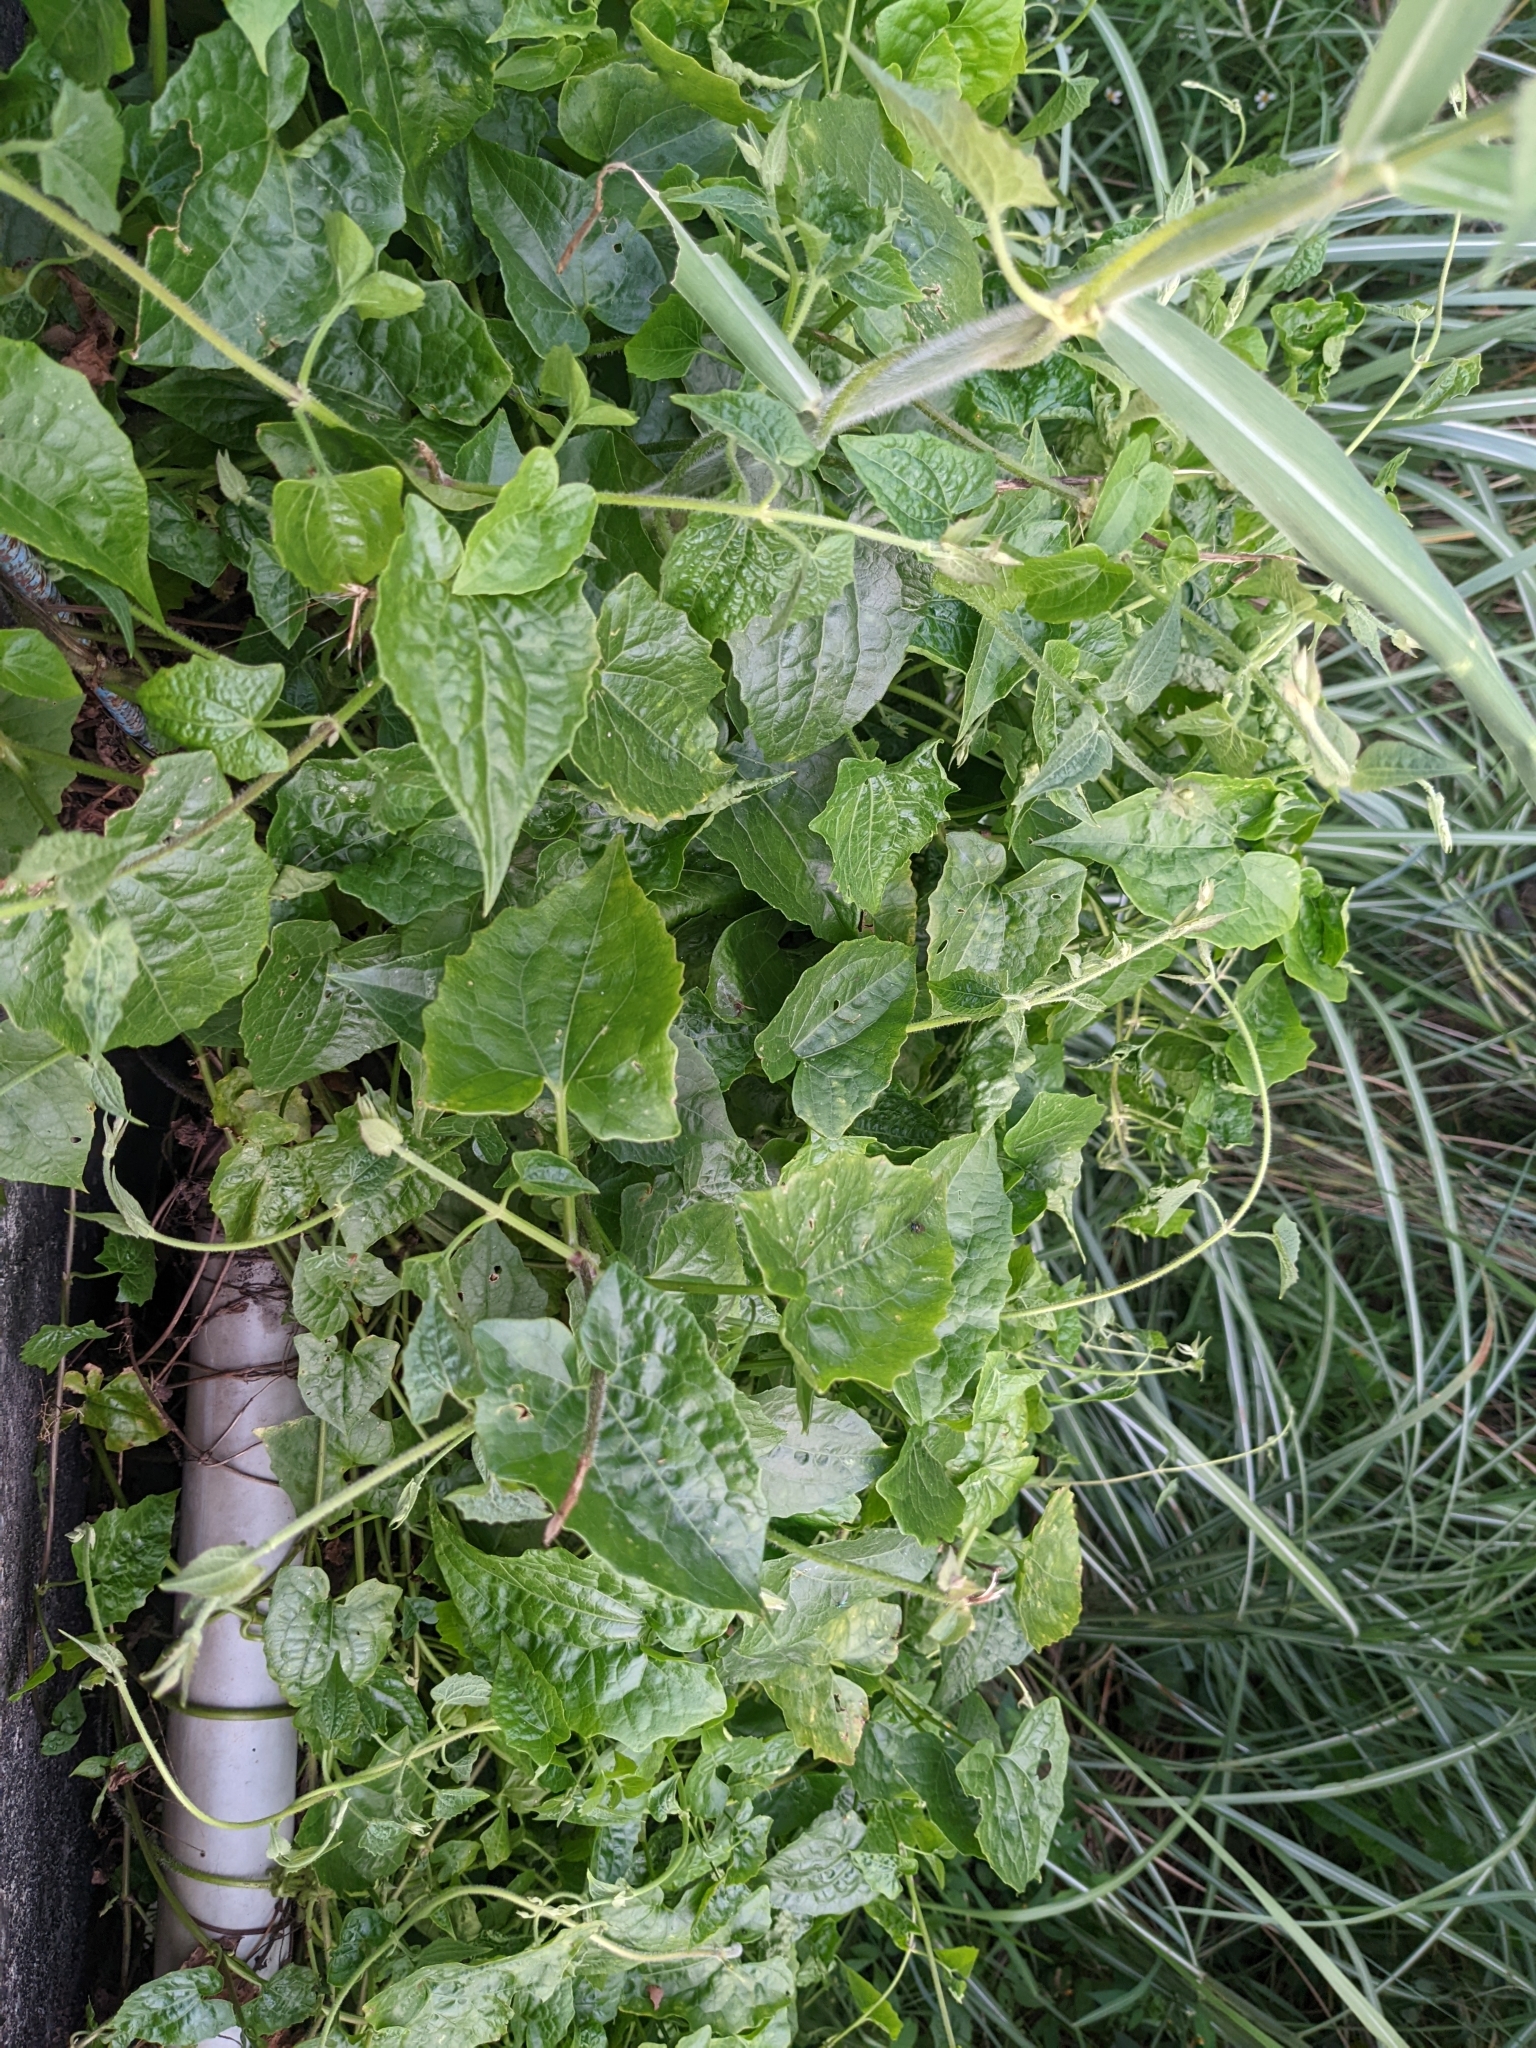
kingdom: Plantae
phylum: Tracheophyta
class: Magnoliopsida
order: Asterales
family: Asteraceae
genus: Mikania
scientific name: Mikania micrantha
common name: Mile-a-minute
